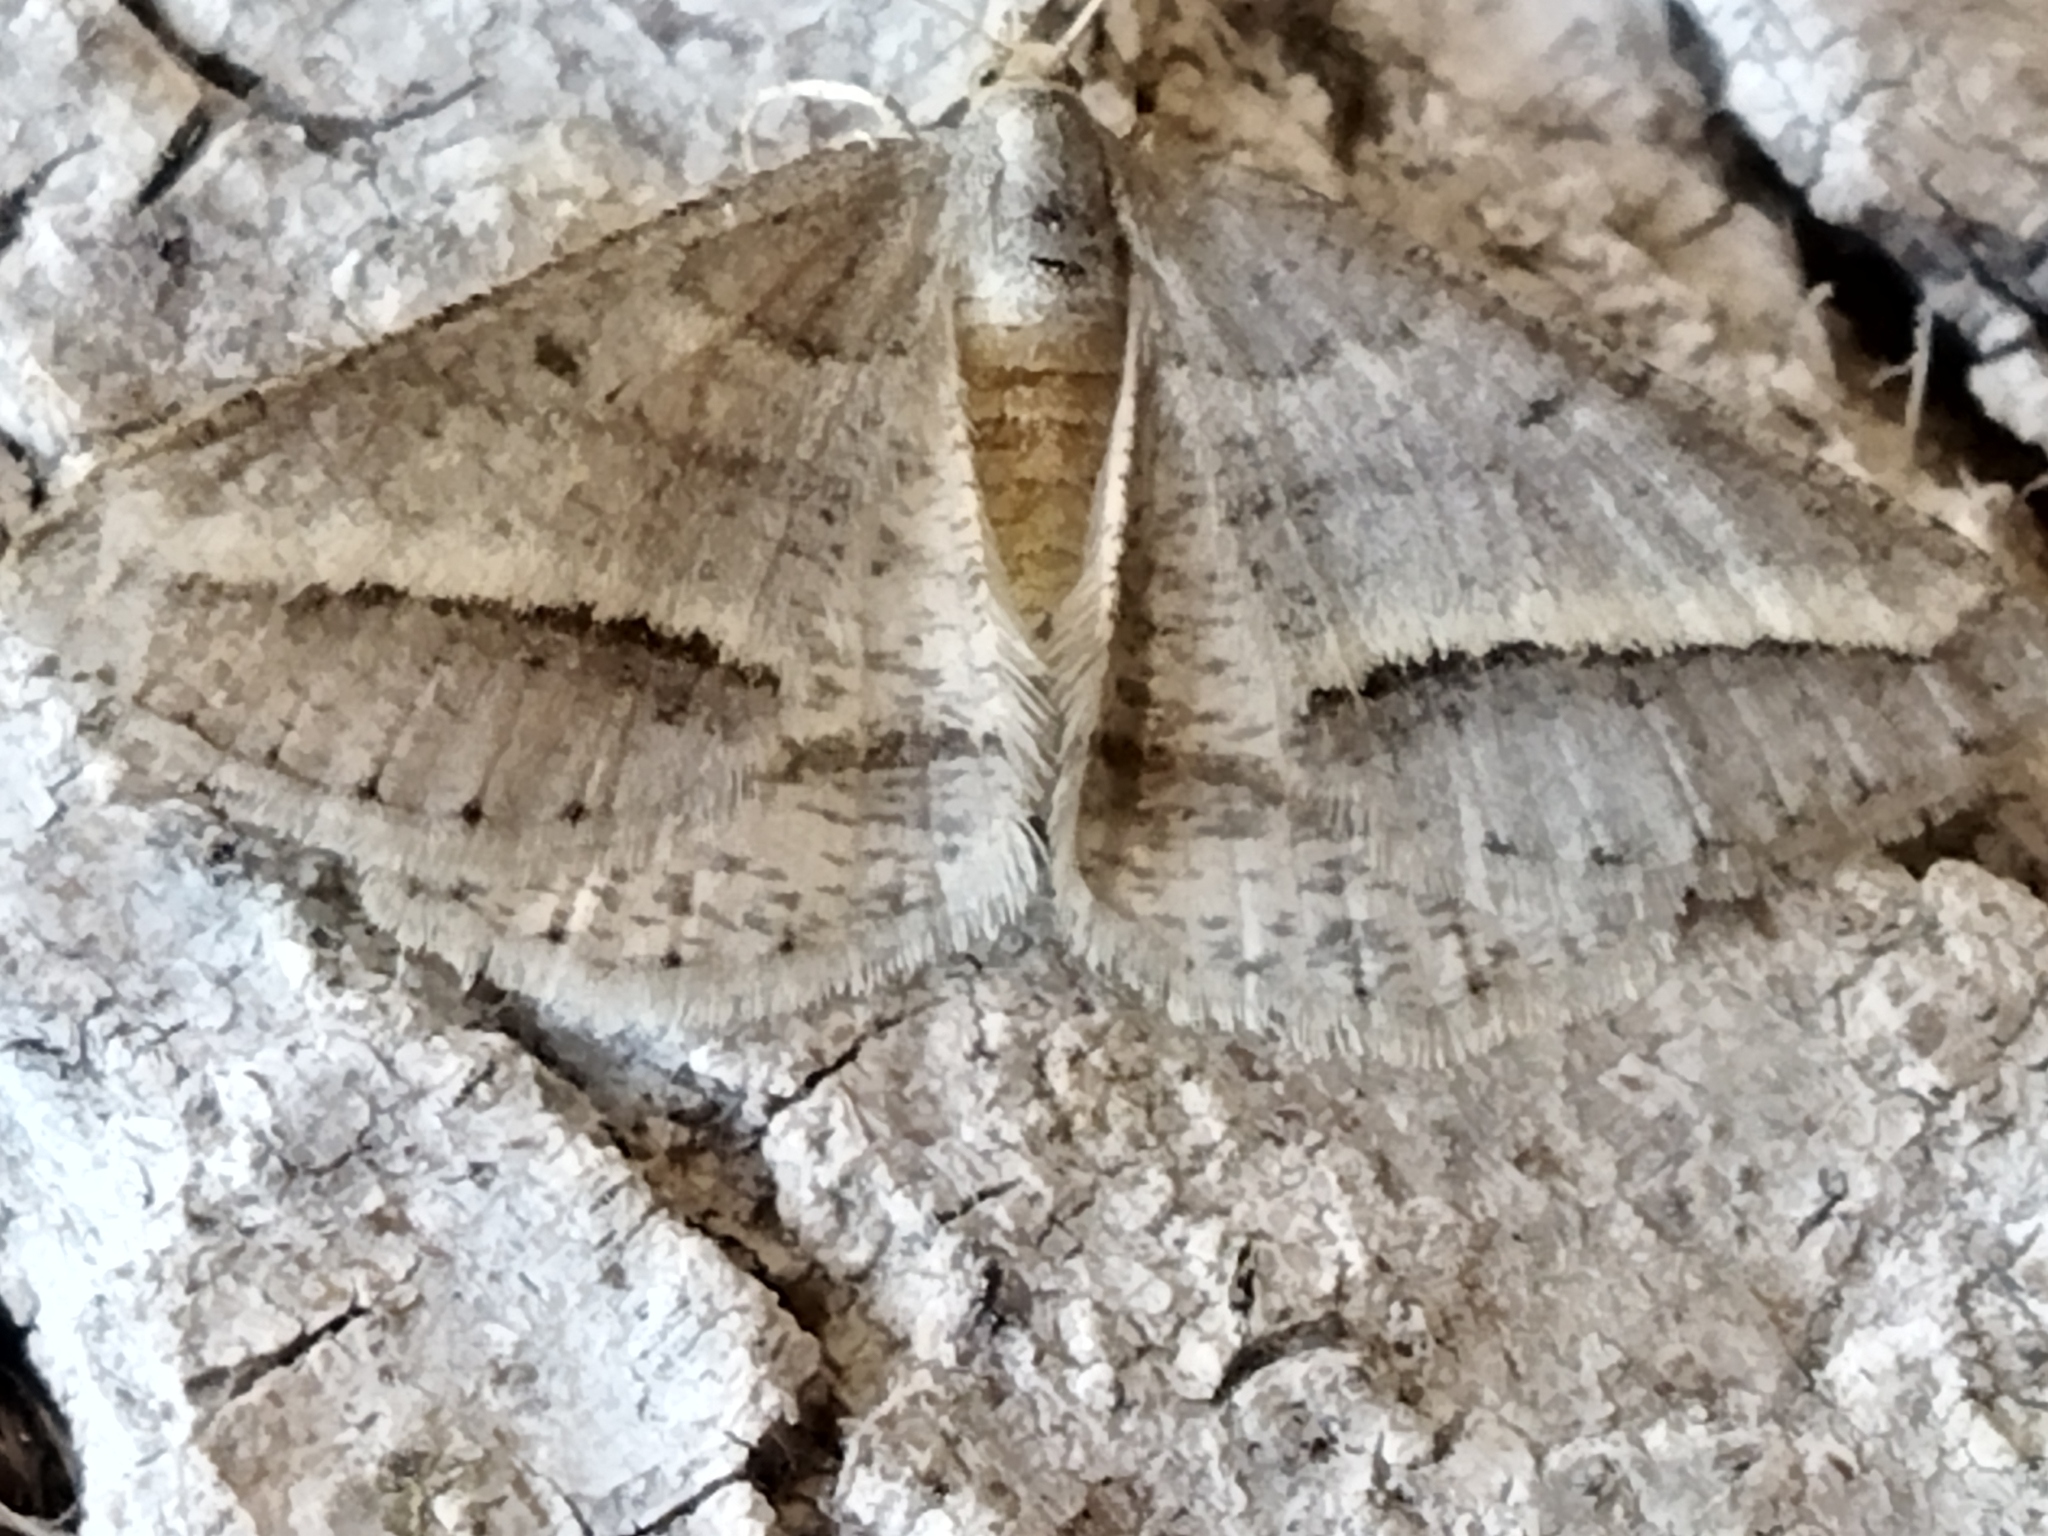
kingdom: Animalia
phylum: Arthropoda
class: Insecta
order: Lepidoptera
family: Geometridae
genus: Tephrina
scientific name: Tephrina arenacearia
